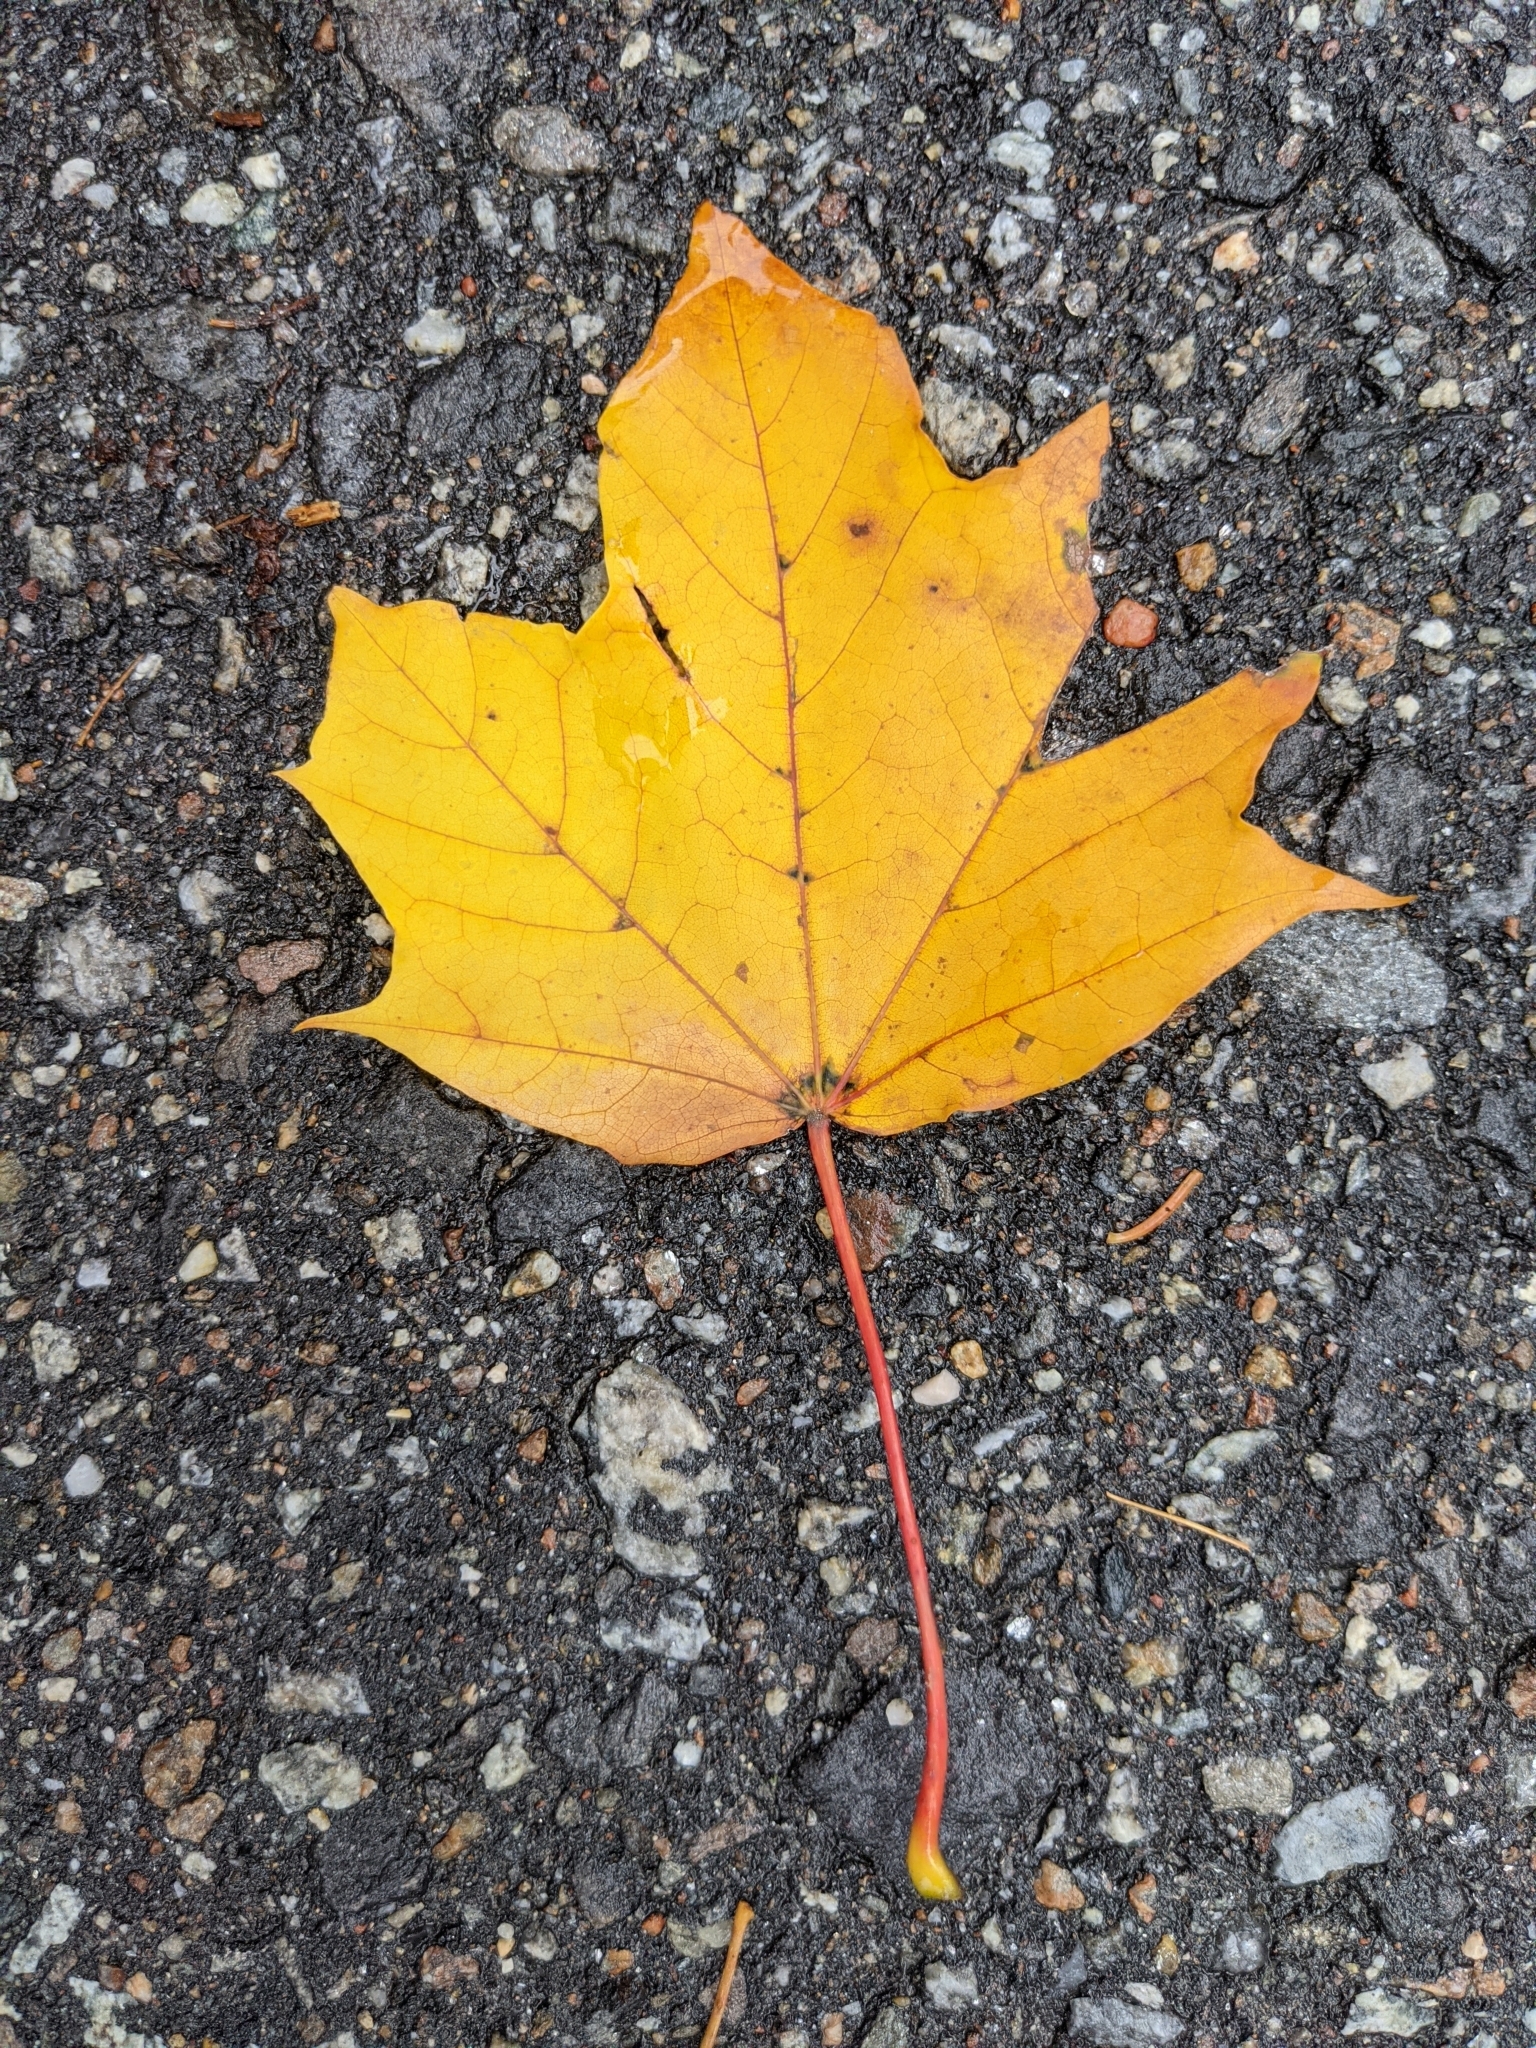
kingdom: Plantae
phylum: Tracheophyta
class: Magnoliopsida
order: Sapindales
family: Sapindaceae
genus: Acer
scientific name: Acer saccharum
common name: Sugar maple
